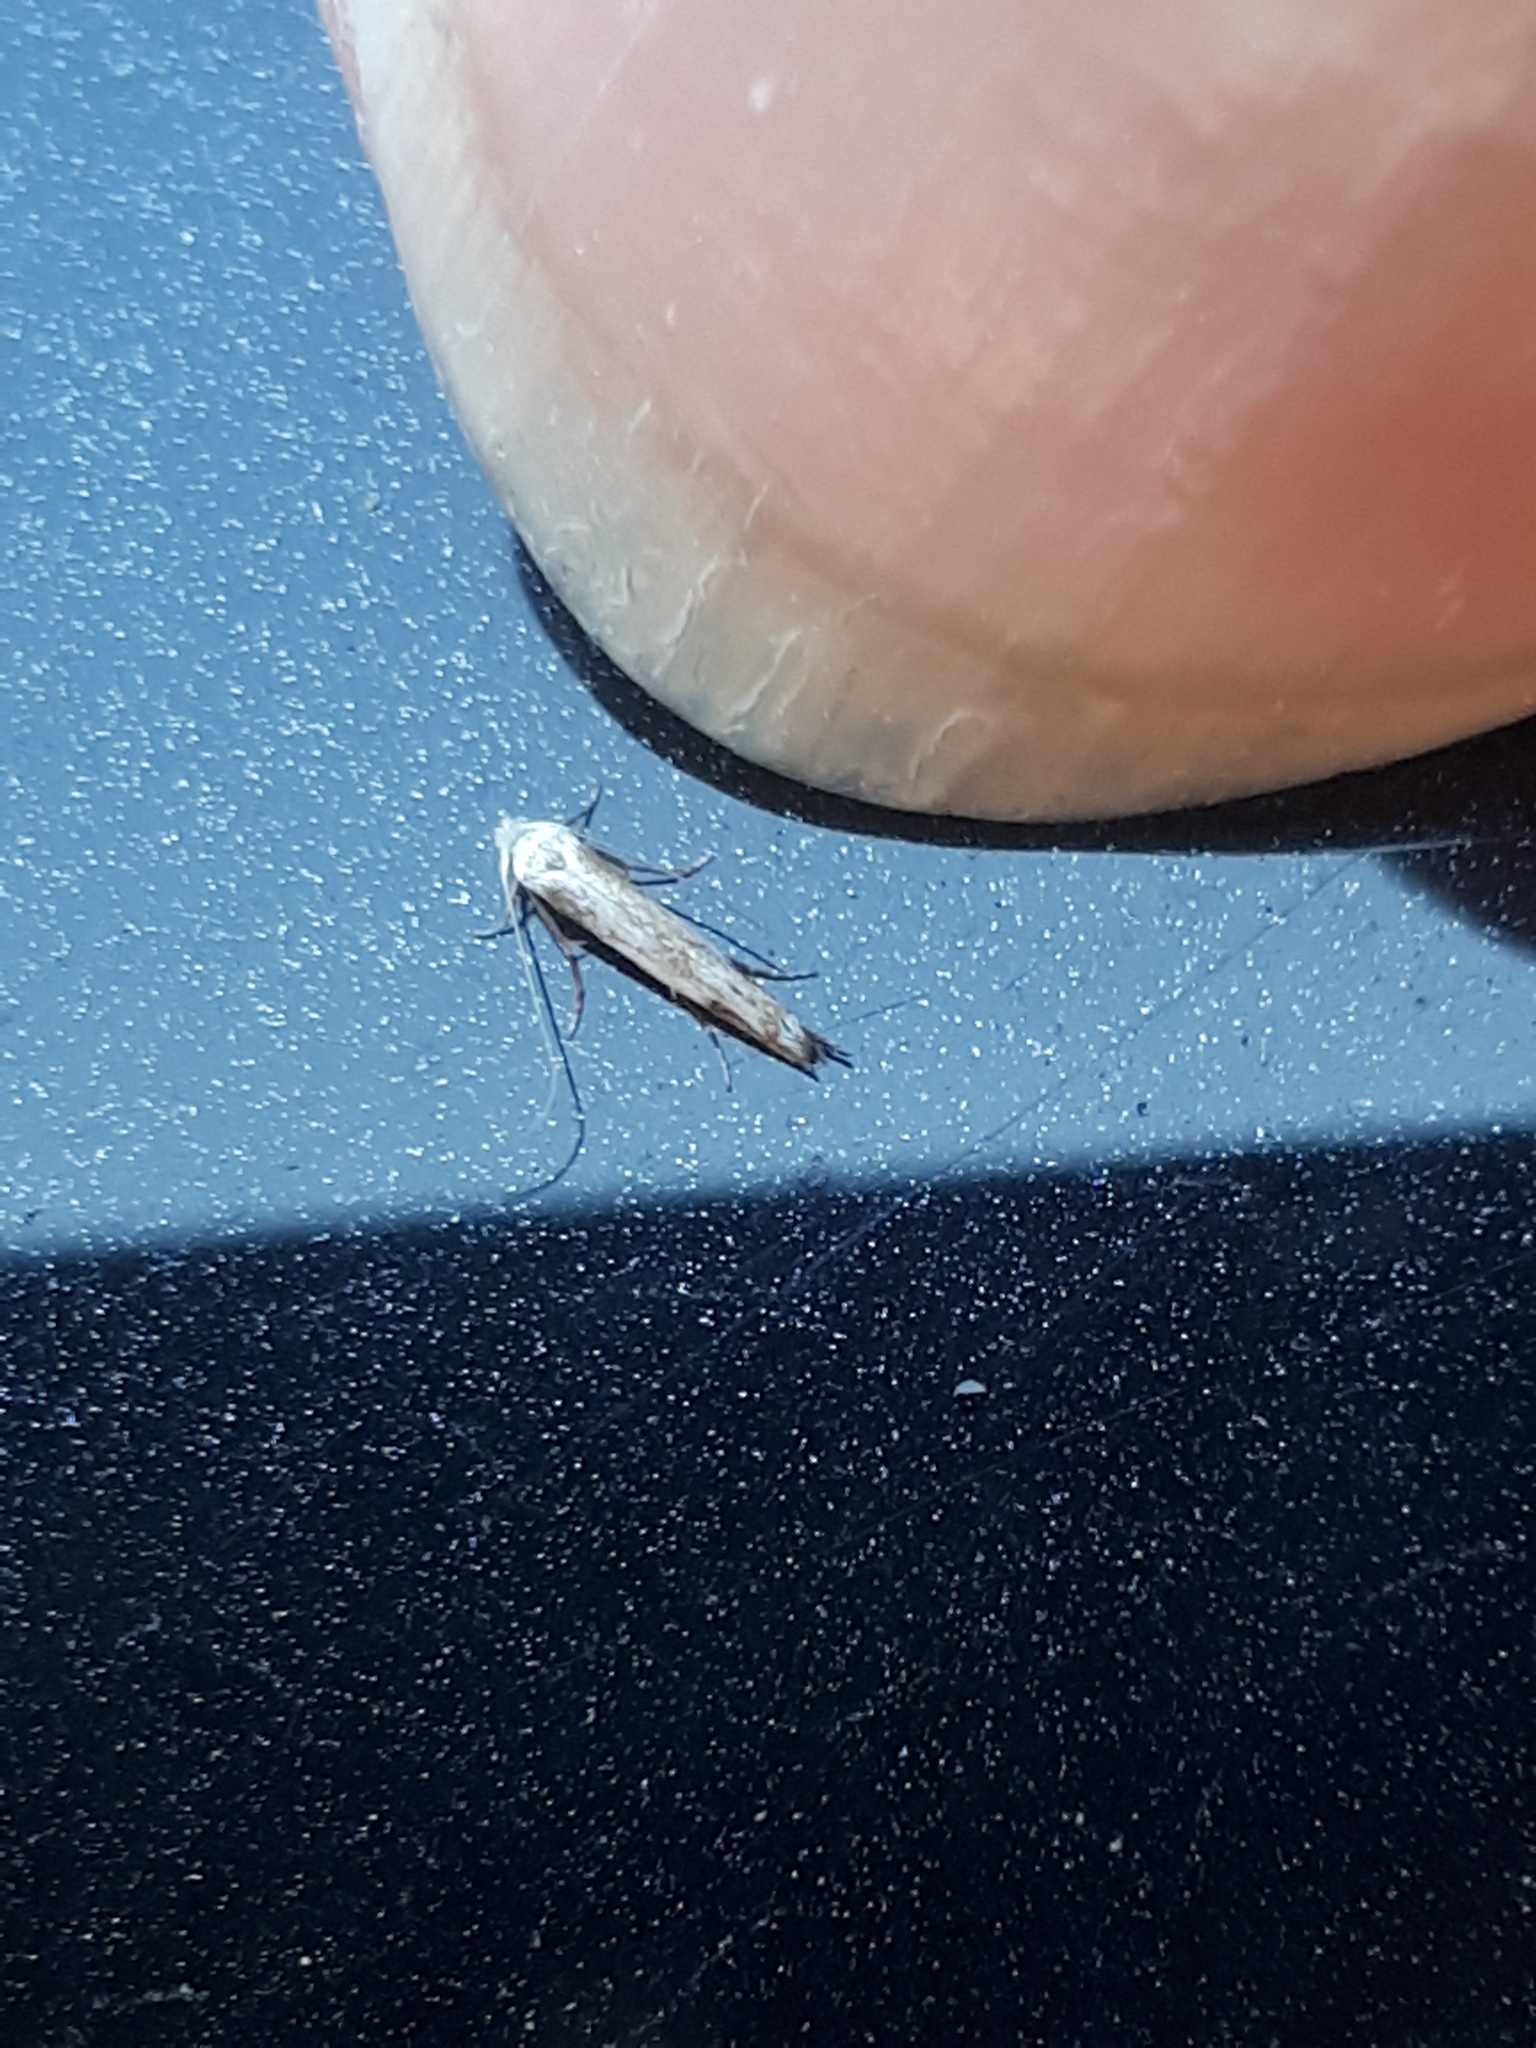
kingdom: Animalia
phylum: Arthropoda
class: Insecta
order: Lepidoptera
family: Lyonetiidae
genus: Lyonetia
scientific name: Lyonetia clerkella
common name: Apple leaf miner
